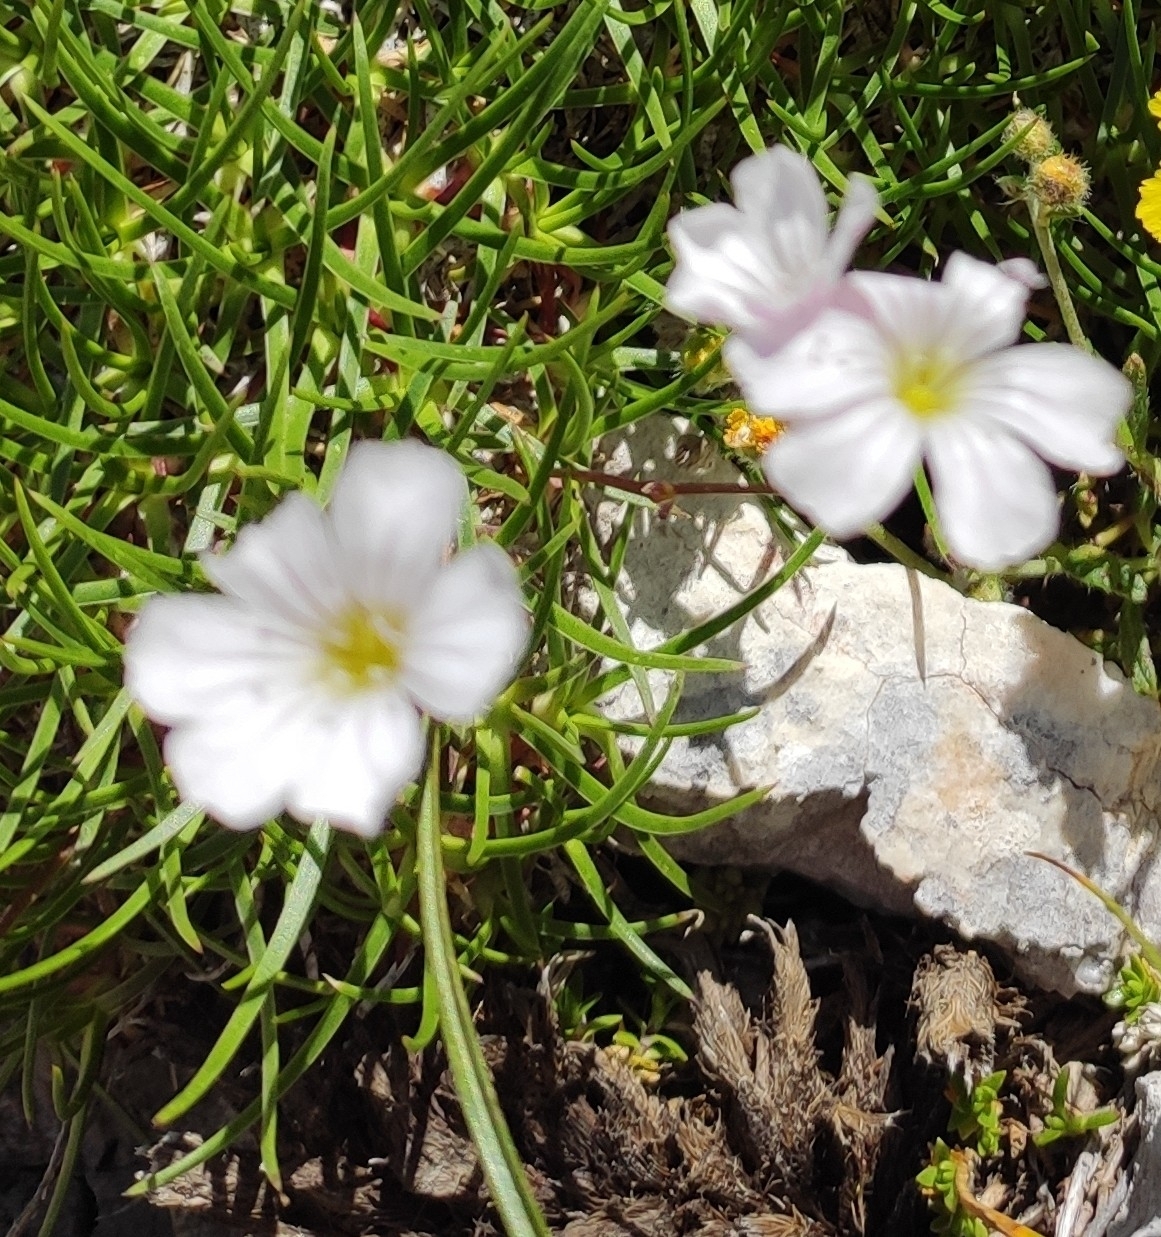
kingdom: Plantae
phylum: Tracheophyta
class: Magnoliopsida
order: Caryophyllales
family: Caryophyllaceae
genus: Gypsophila
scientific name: Gypsophila tenuifolia
